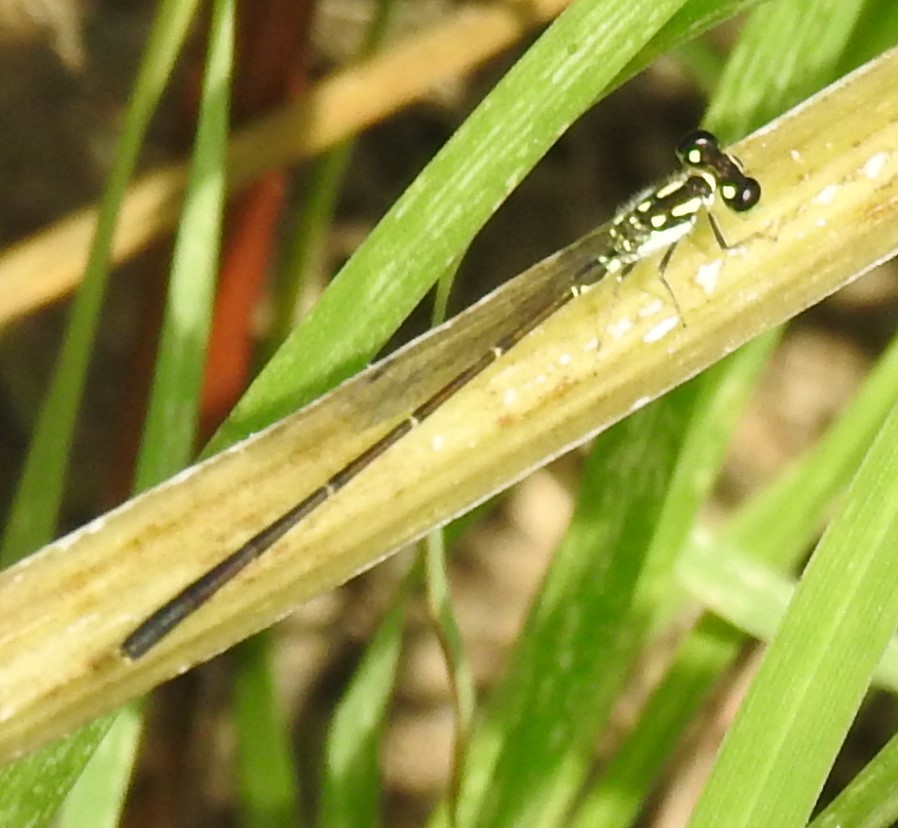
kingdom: Animalia
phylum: Arthropoda
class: Insecta
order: Odonata
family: Coenagrionidae
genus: Ischnura
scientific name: Ischnura posita
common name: Fragile forktail
